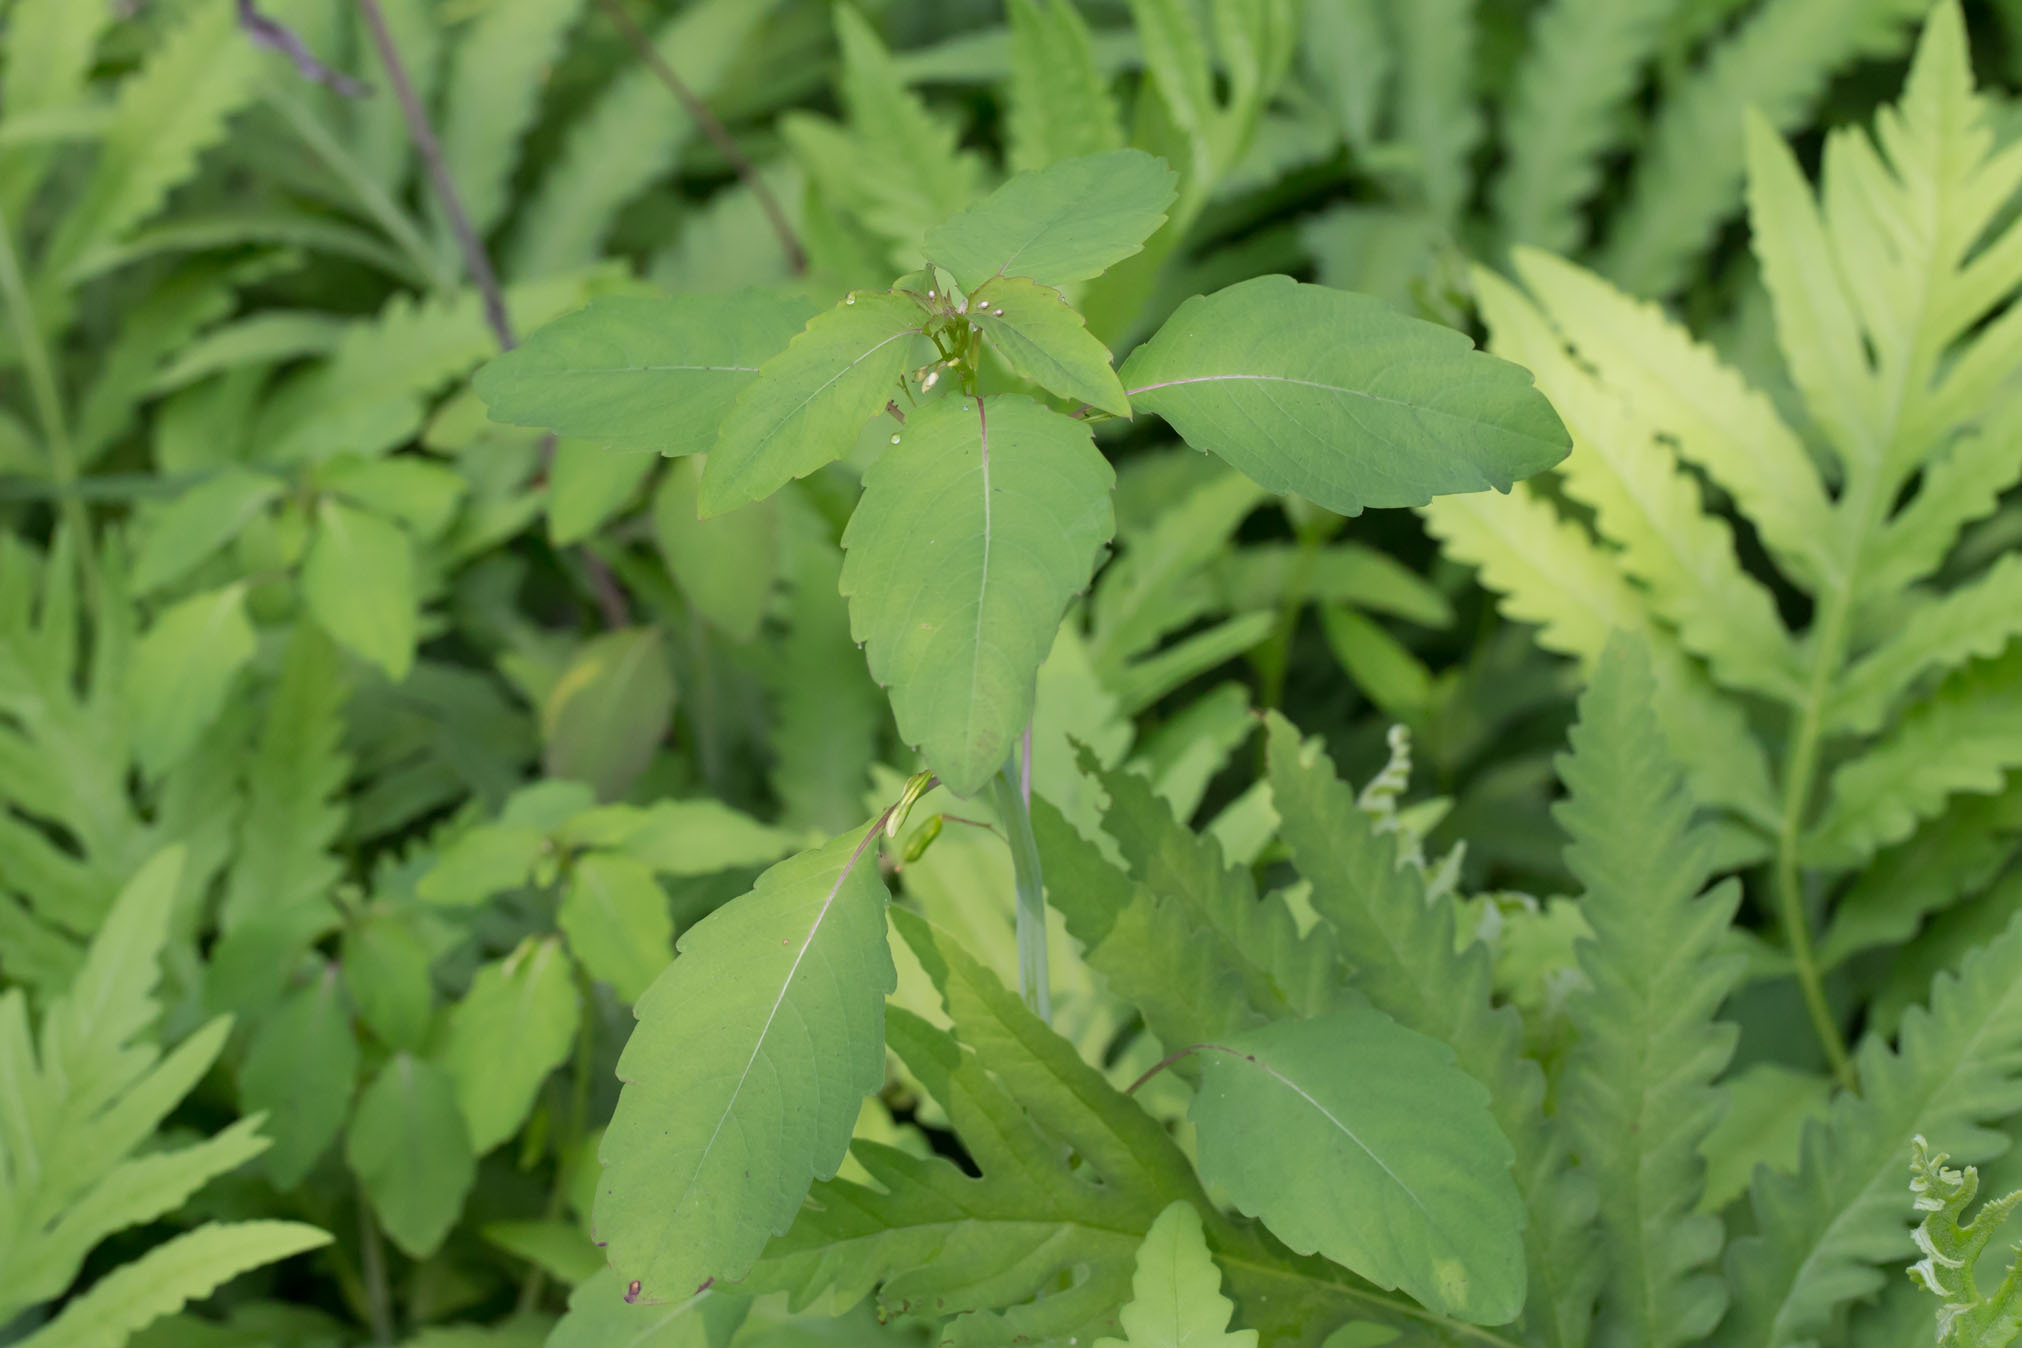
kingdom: Plantae
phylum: Tracheophyta
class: Magnoliopsida
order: Ericales
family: Balsaminaceae
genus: Impatiens
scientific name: Impatiens capensis
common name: Orange balsam
